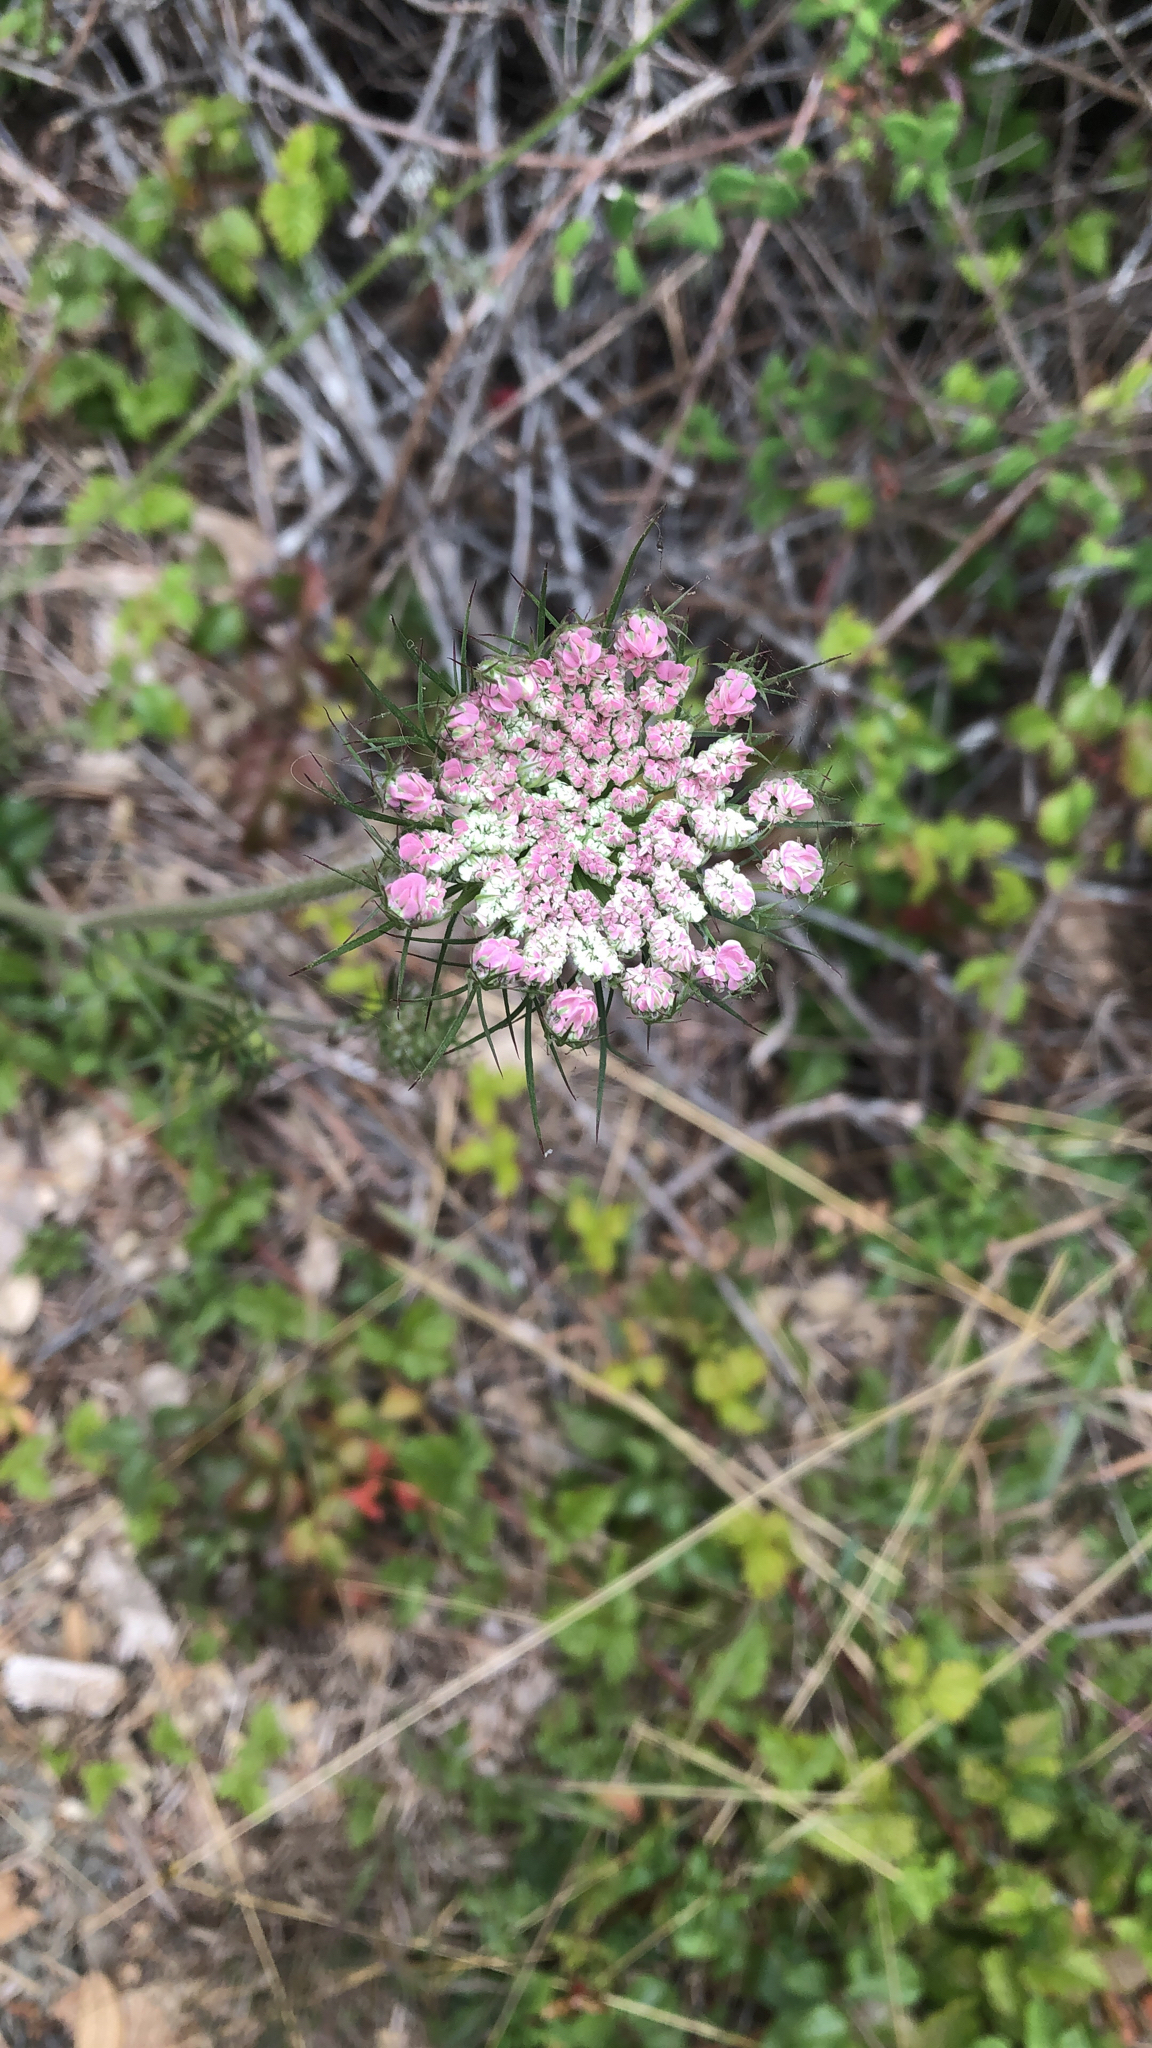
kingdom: Plantae
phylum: Tracheophyta
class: Magnoliopsida
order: Apiales
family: Apiaceae
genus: Daucus
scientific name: Daucus carota
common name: Wild carrot
